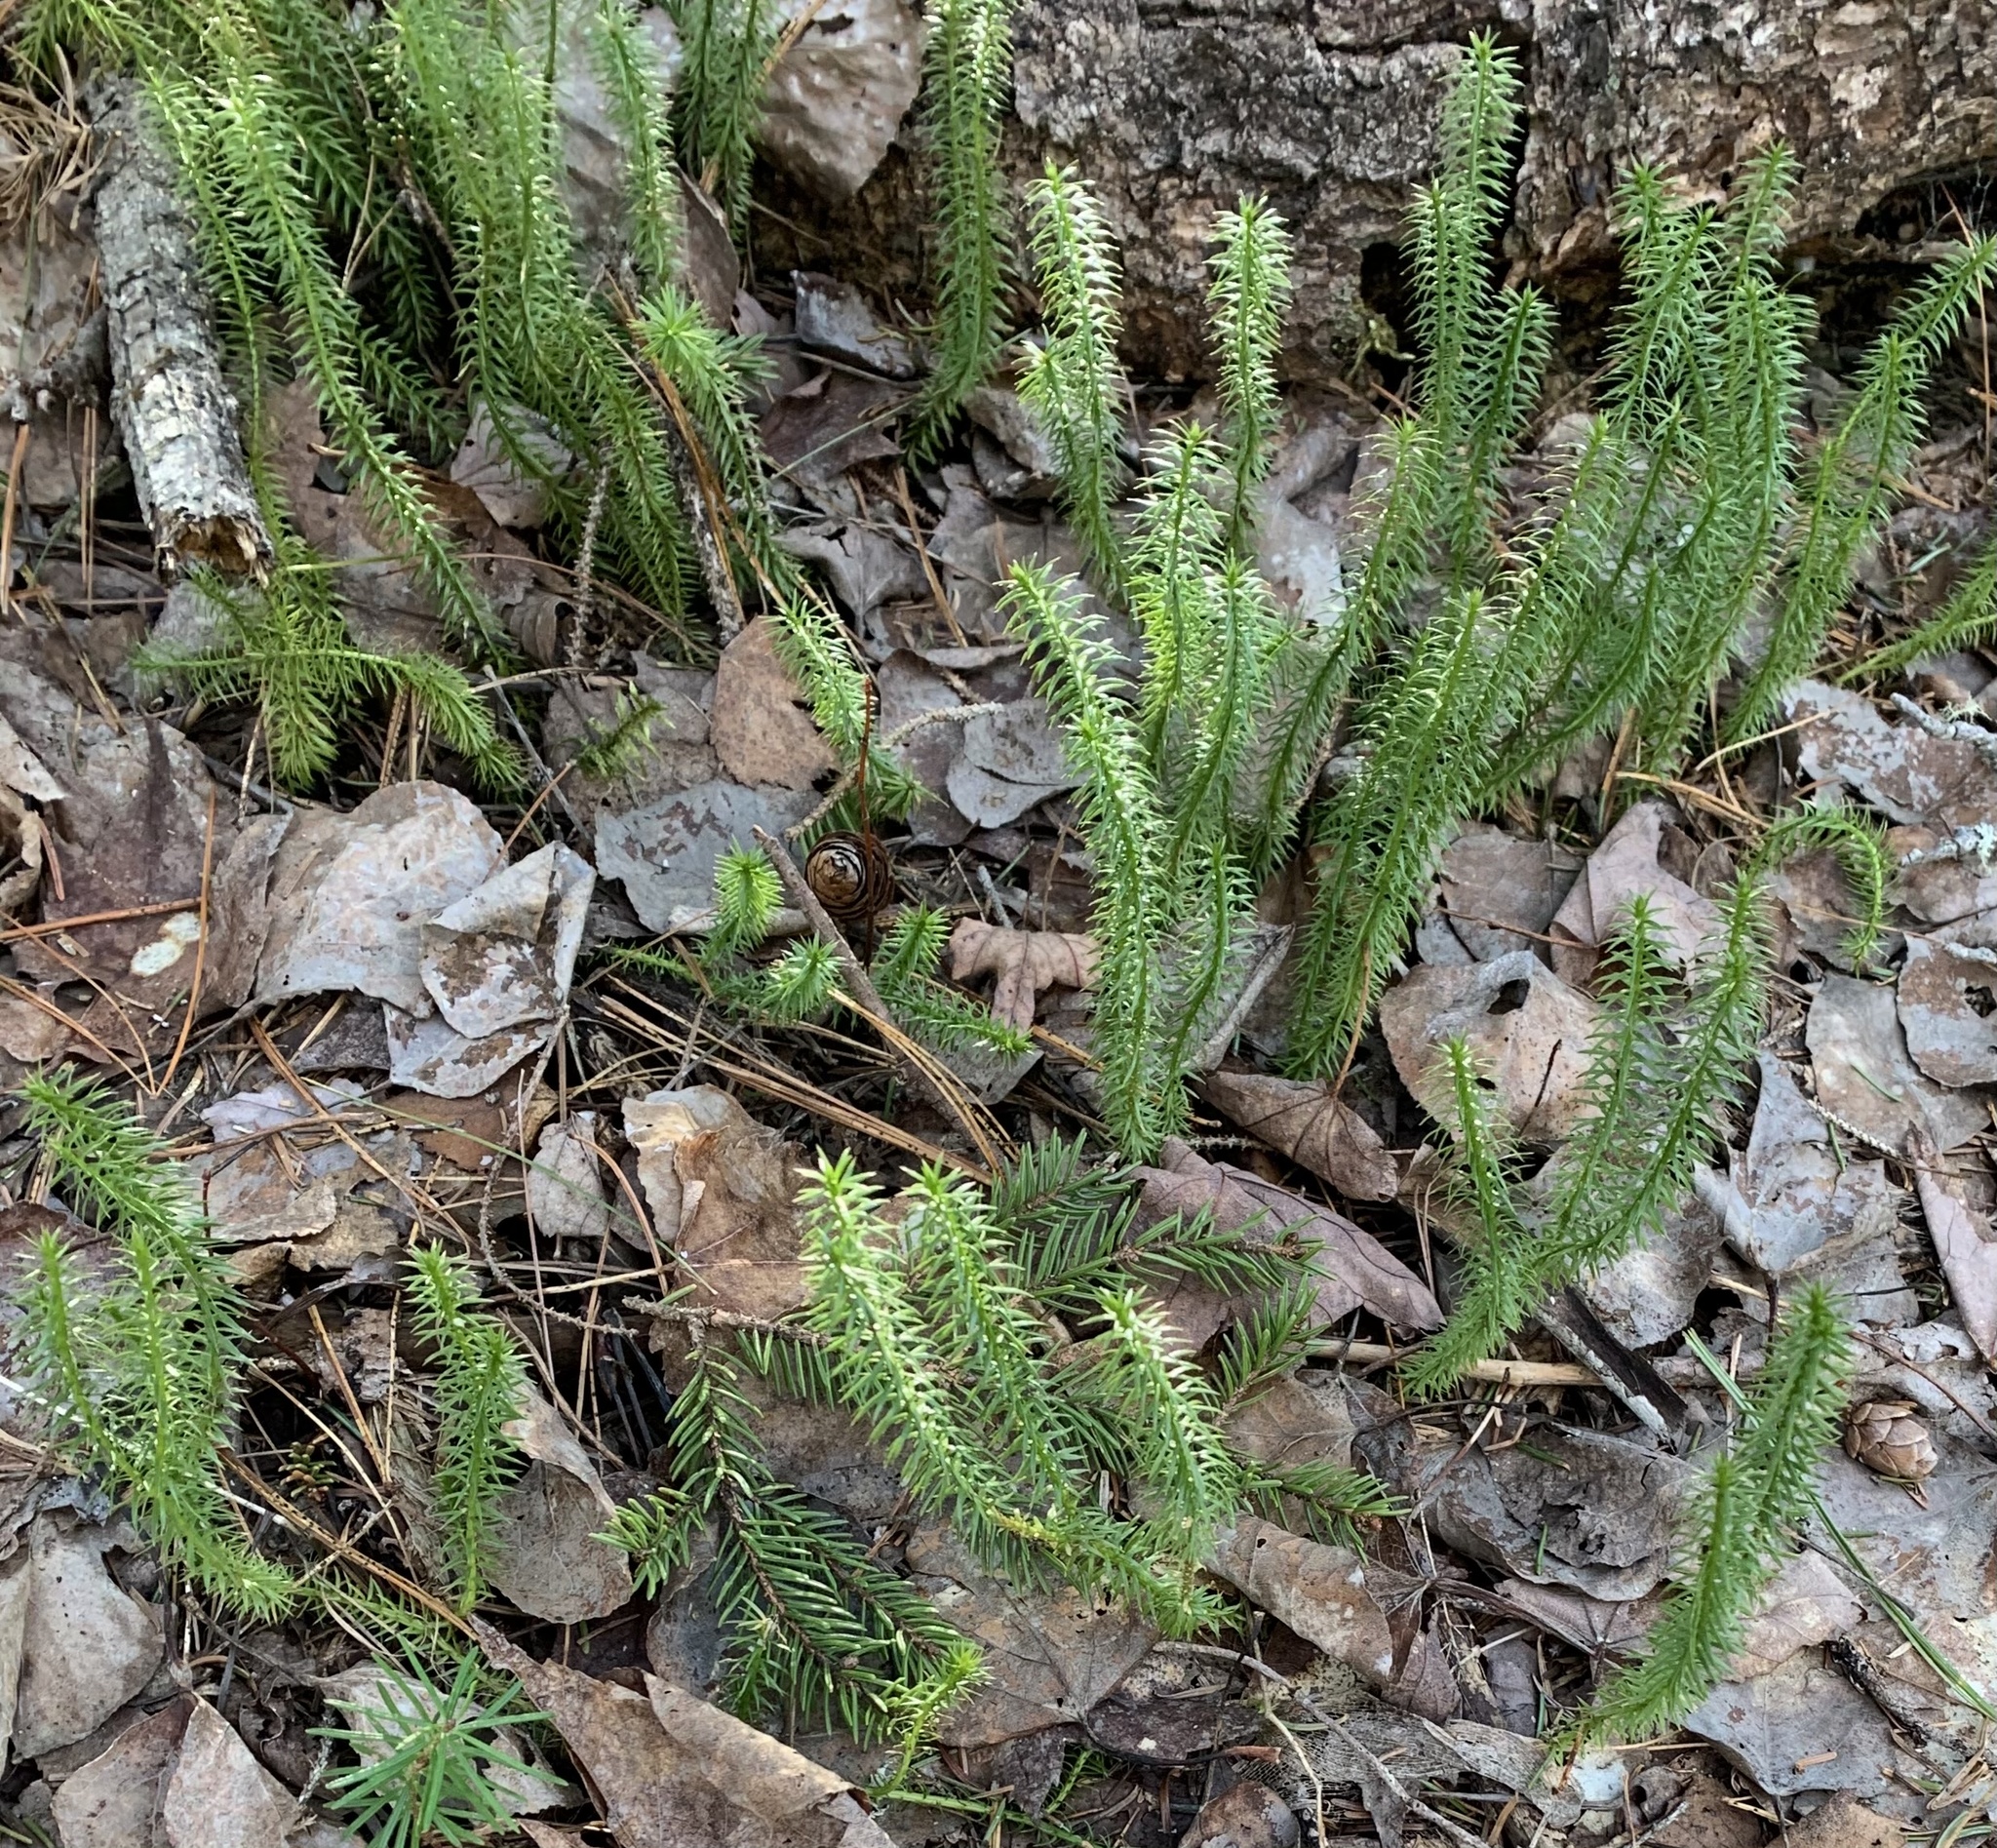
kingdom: Plantae
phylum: Tracheophyta
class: Lycopodiopsida
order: Lycopodiales
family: Lycopodiaceae
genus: Spinulum
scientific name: Spinulum annotinum
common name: Interrupted club-moss
